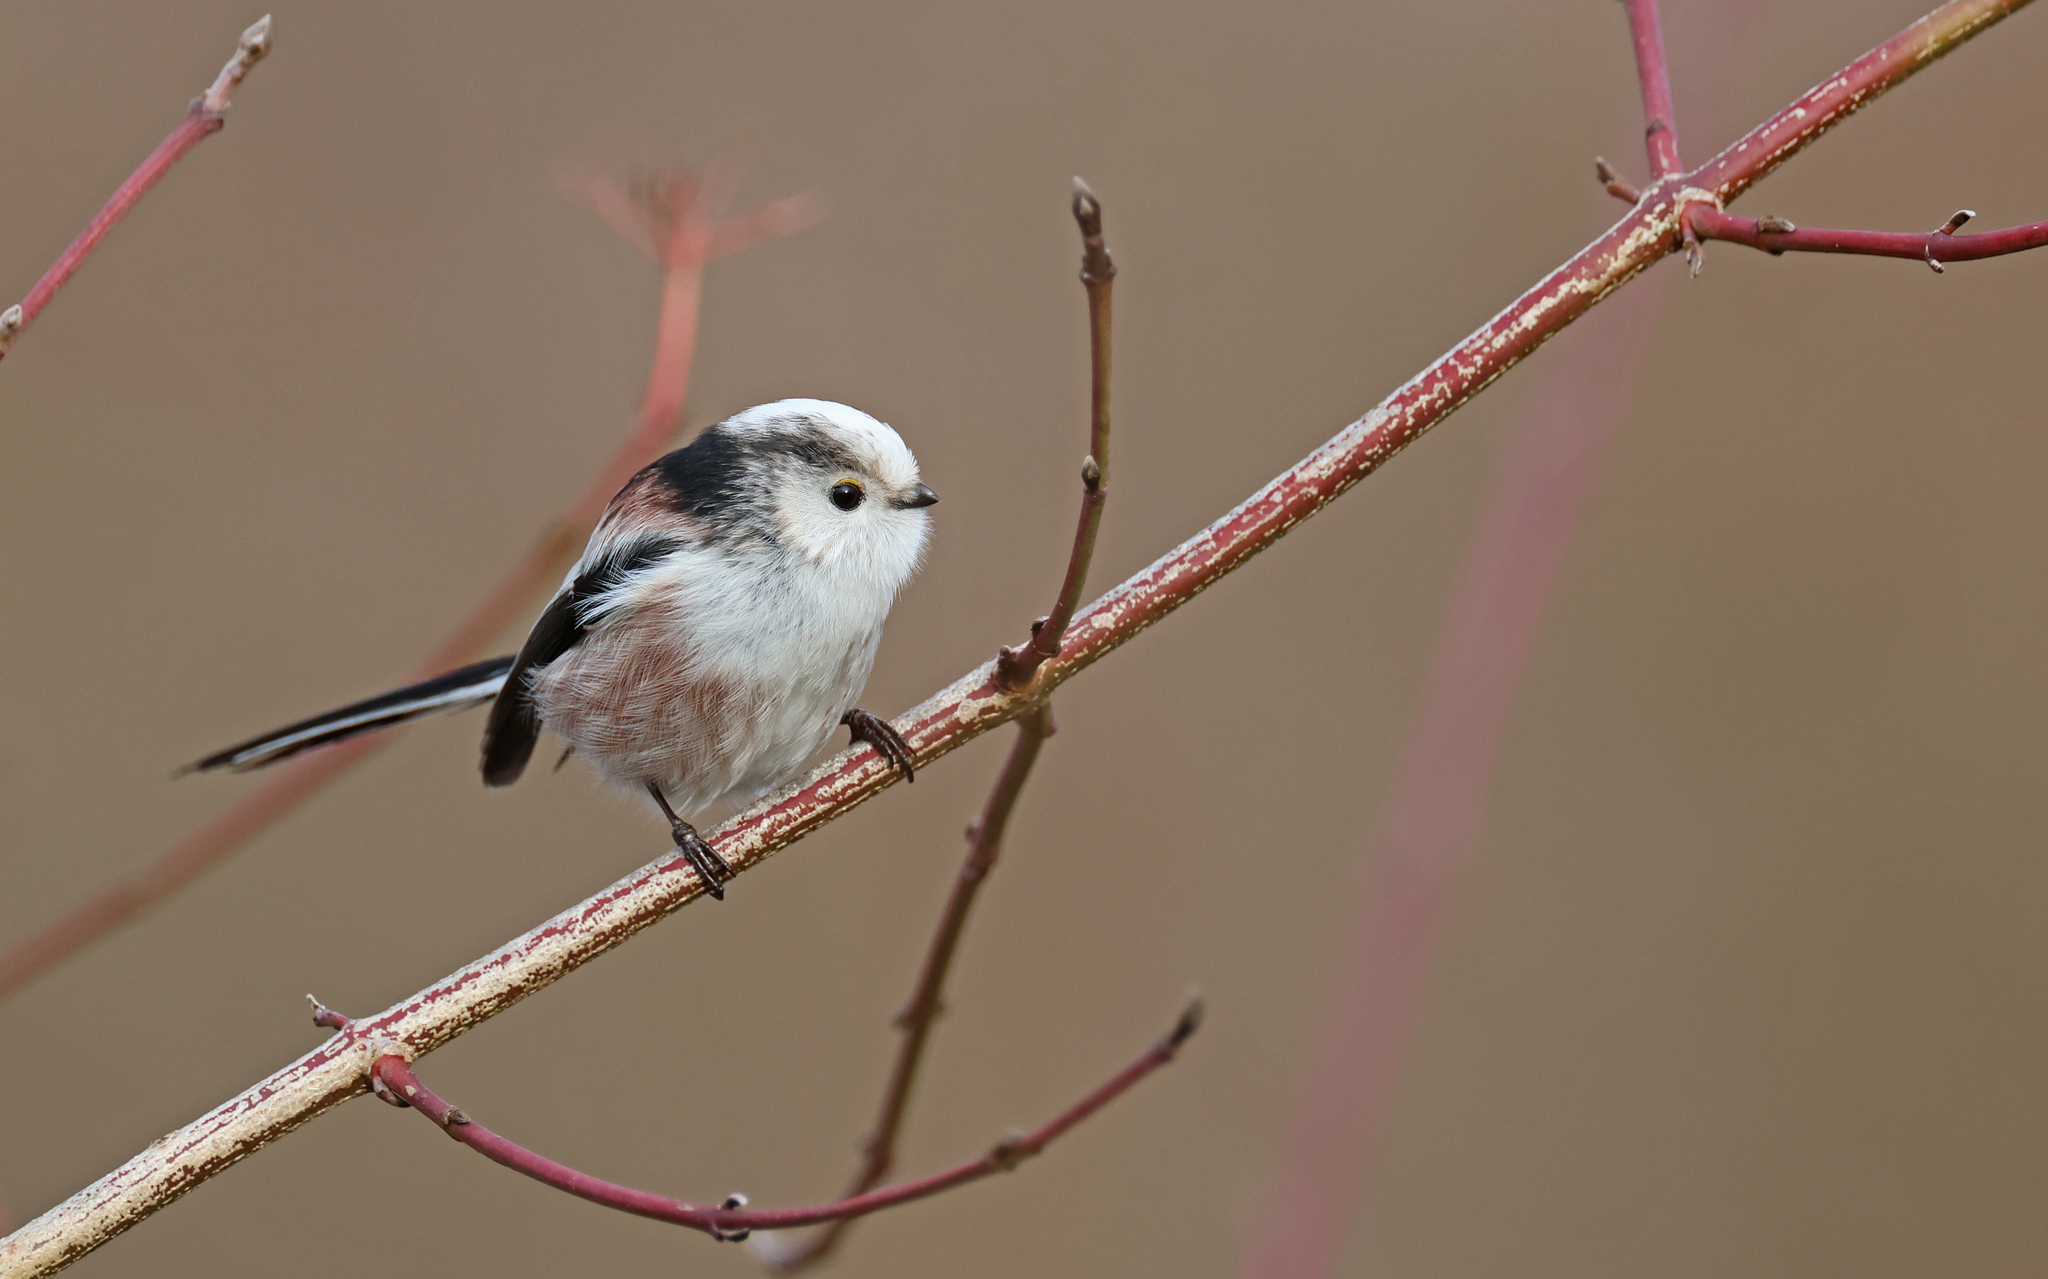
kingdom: Animalia
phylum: Chordata
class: Aves
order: Passeriformes
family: Aegithalidae
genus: Aegithalos
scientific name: Aegithalos caudatus
